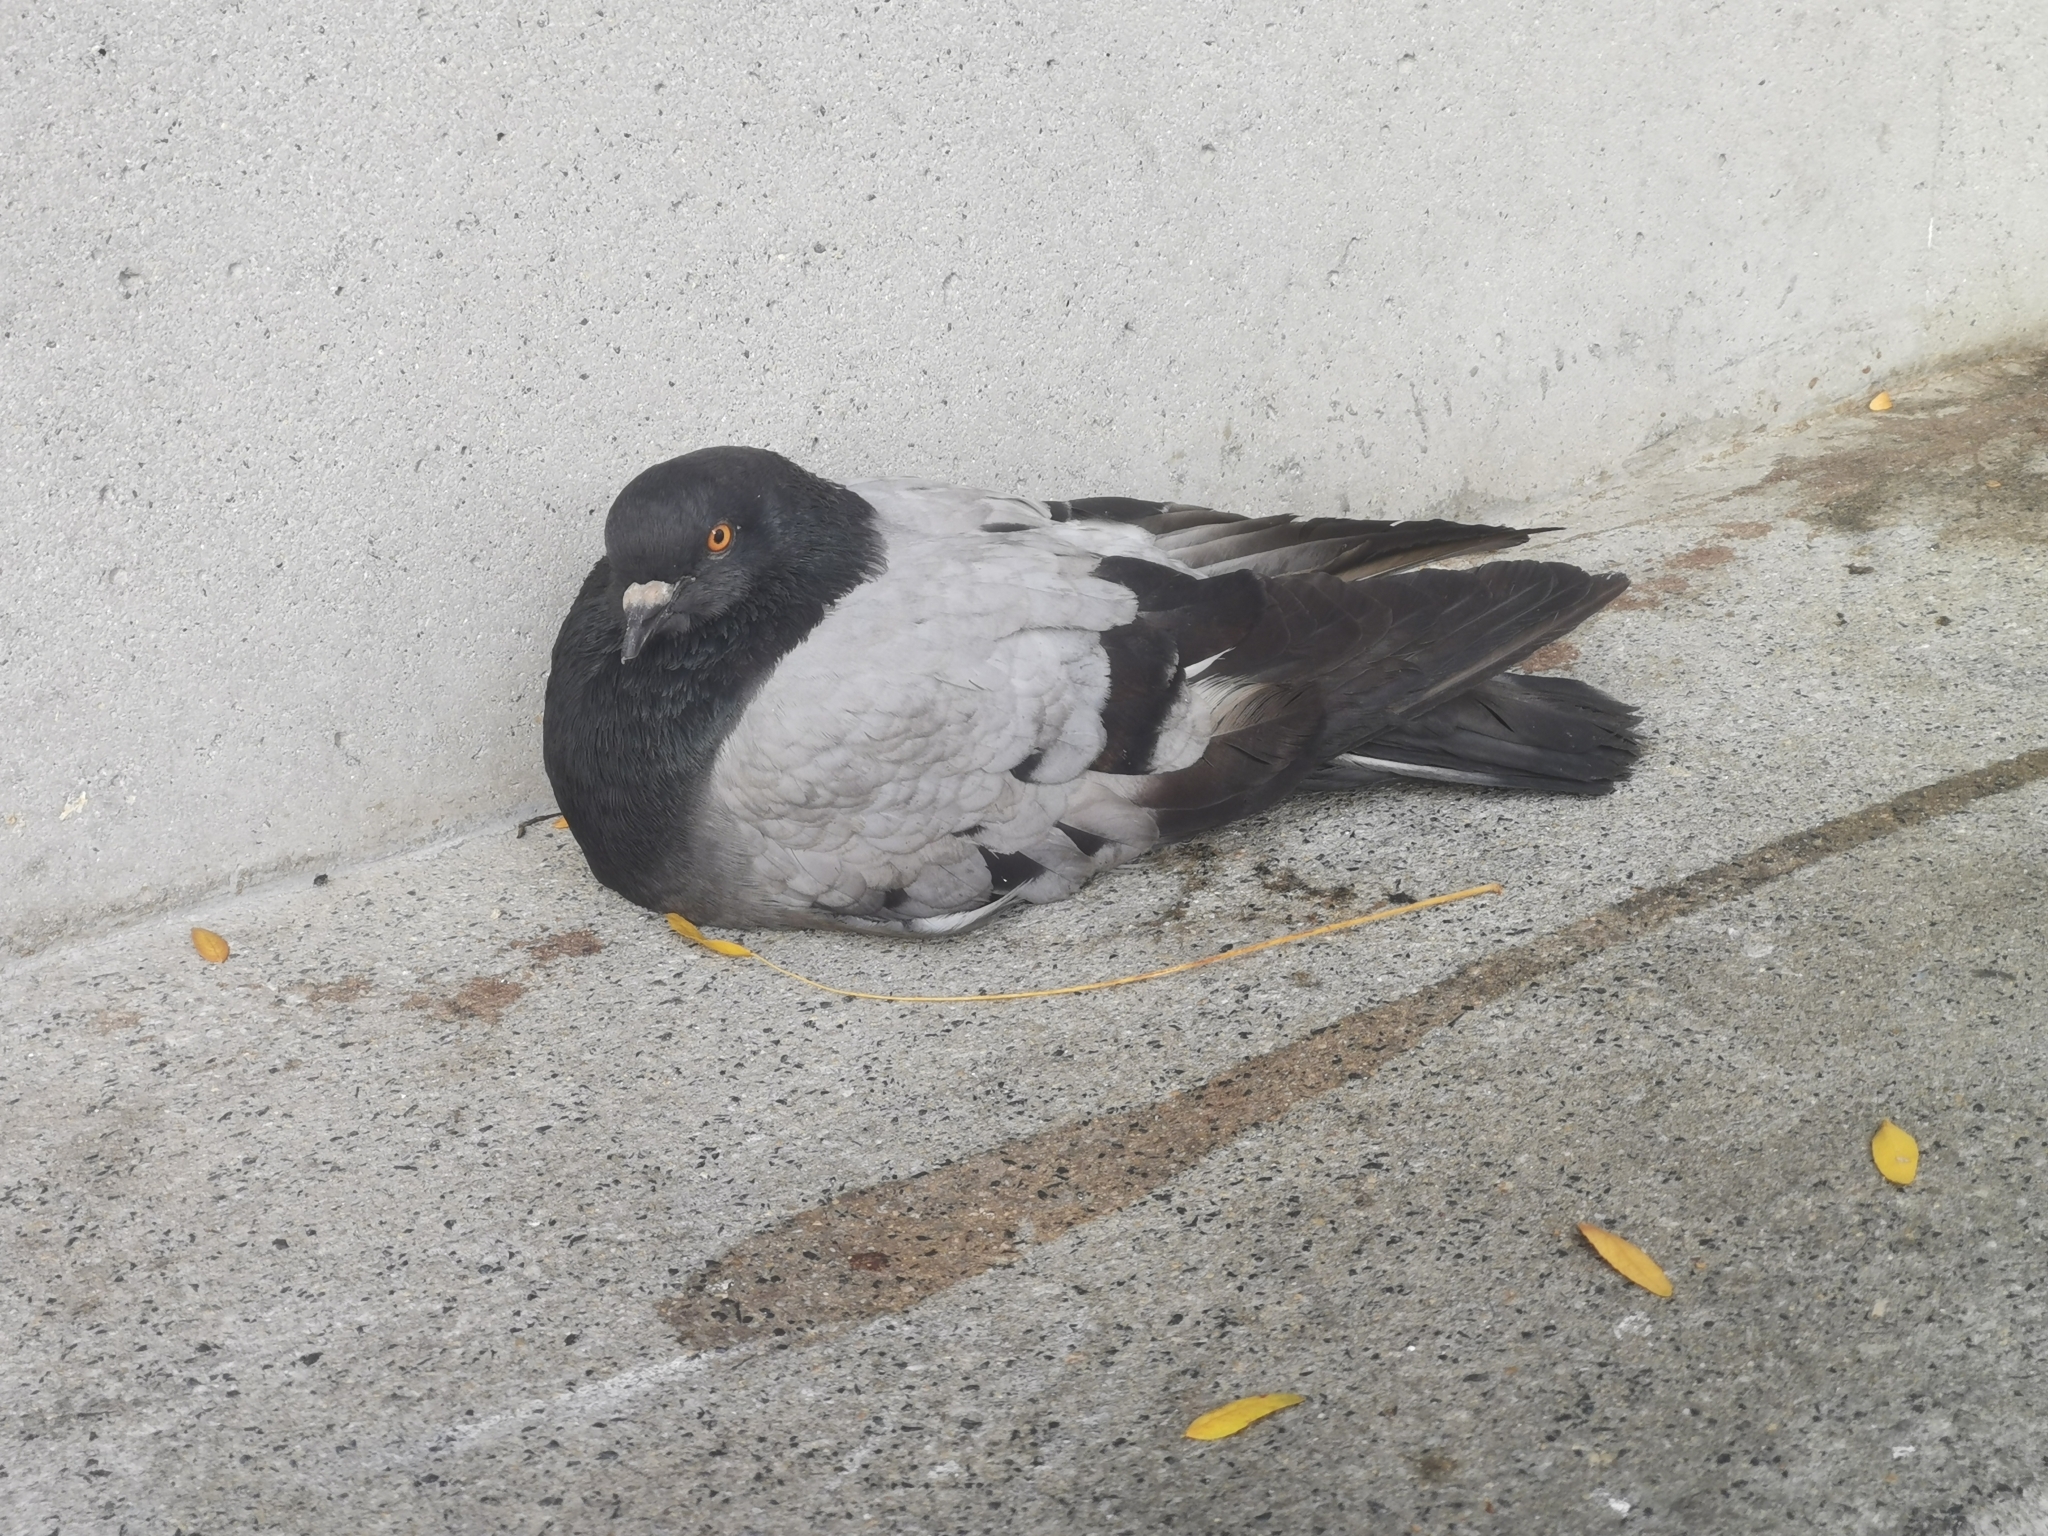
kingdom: Animalia
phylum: Chordata
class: Aves
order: Columbiformes
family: Columbidae
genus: Columba
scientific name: Columba livia
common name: Rock pigeon
